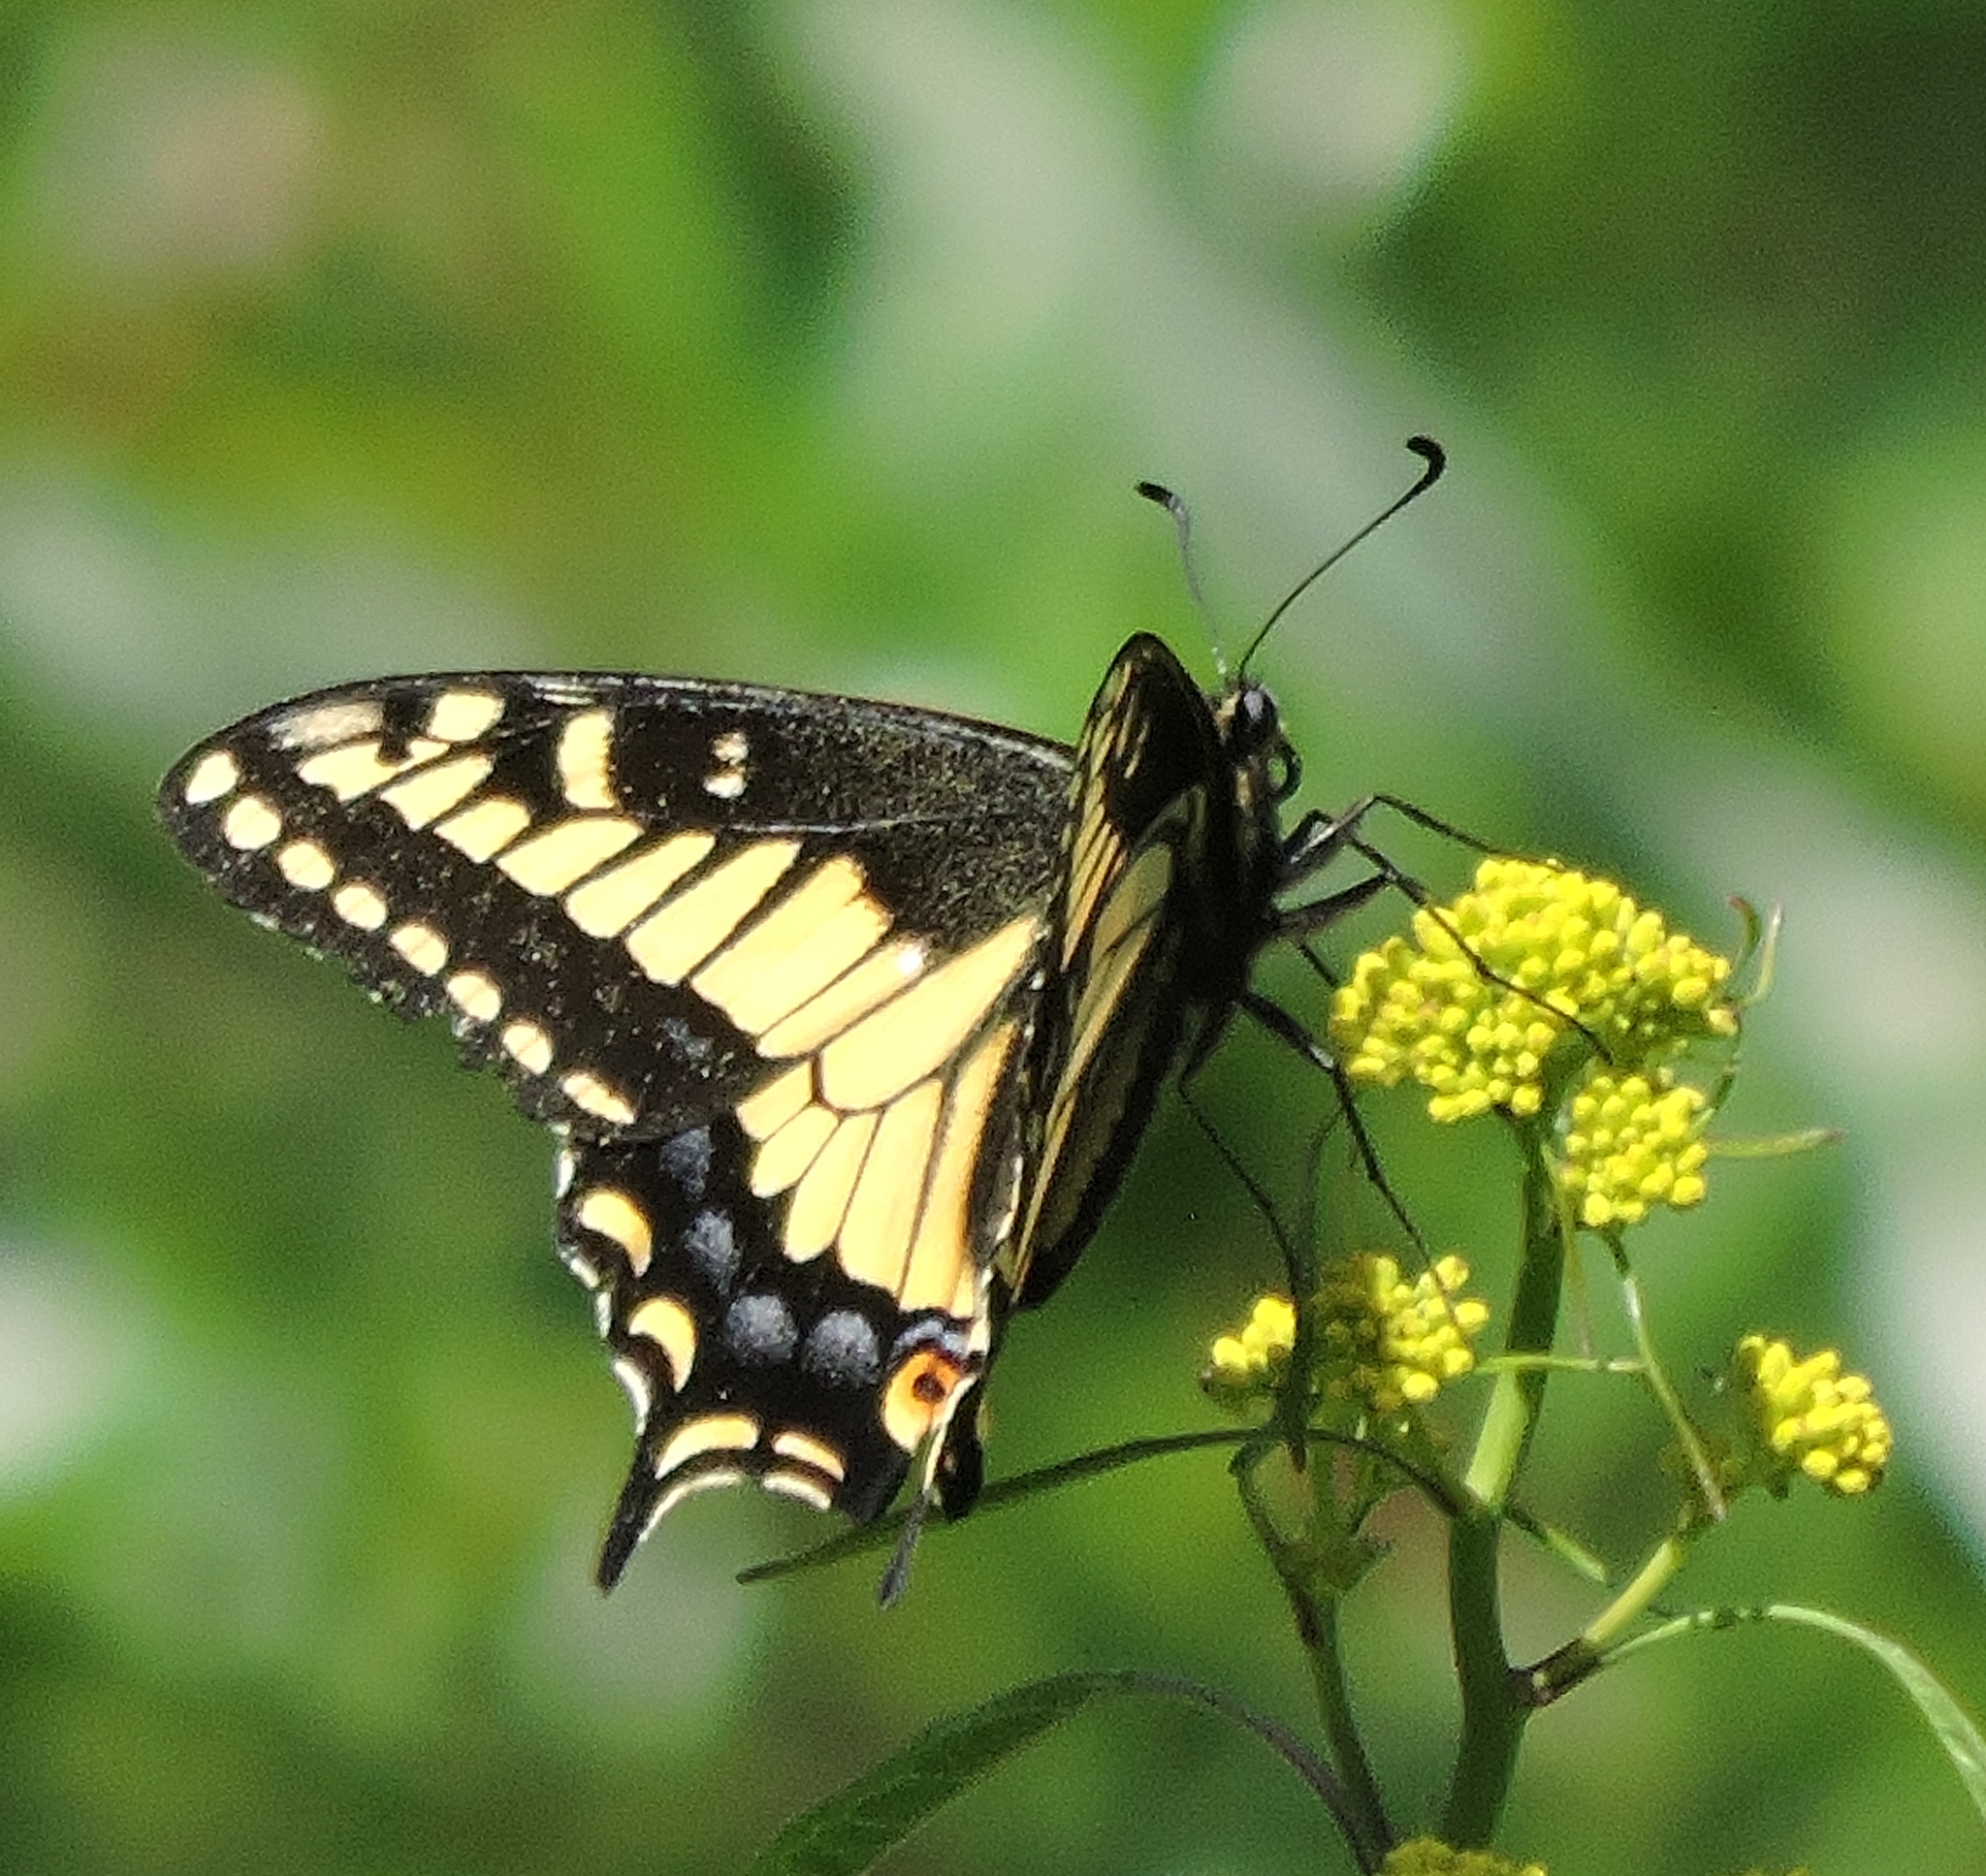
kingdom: Animalia
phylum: Arthropoda
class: Insecta
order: Lepidoptera
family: Papilionidae
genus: Papilio
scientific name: Papilio zelicaon
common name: Anise swallowtail
